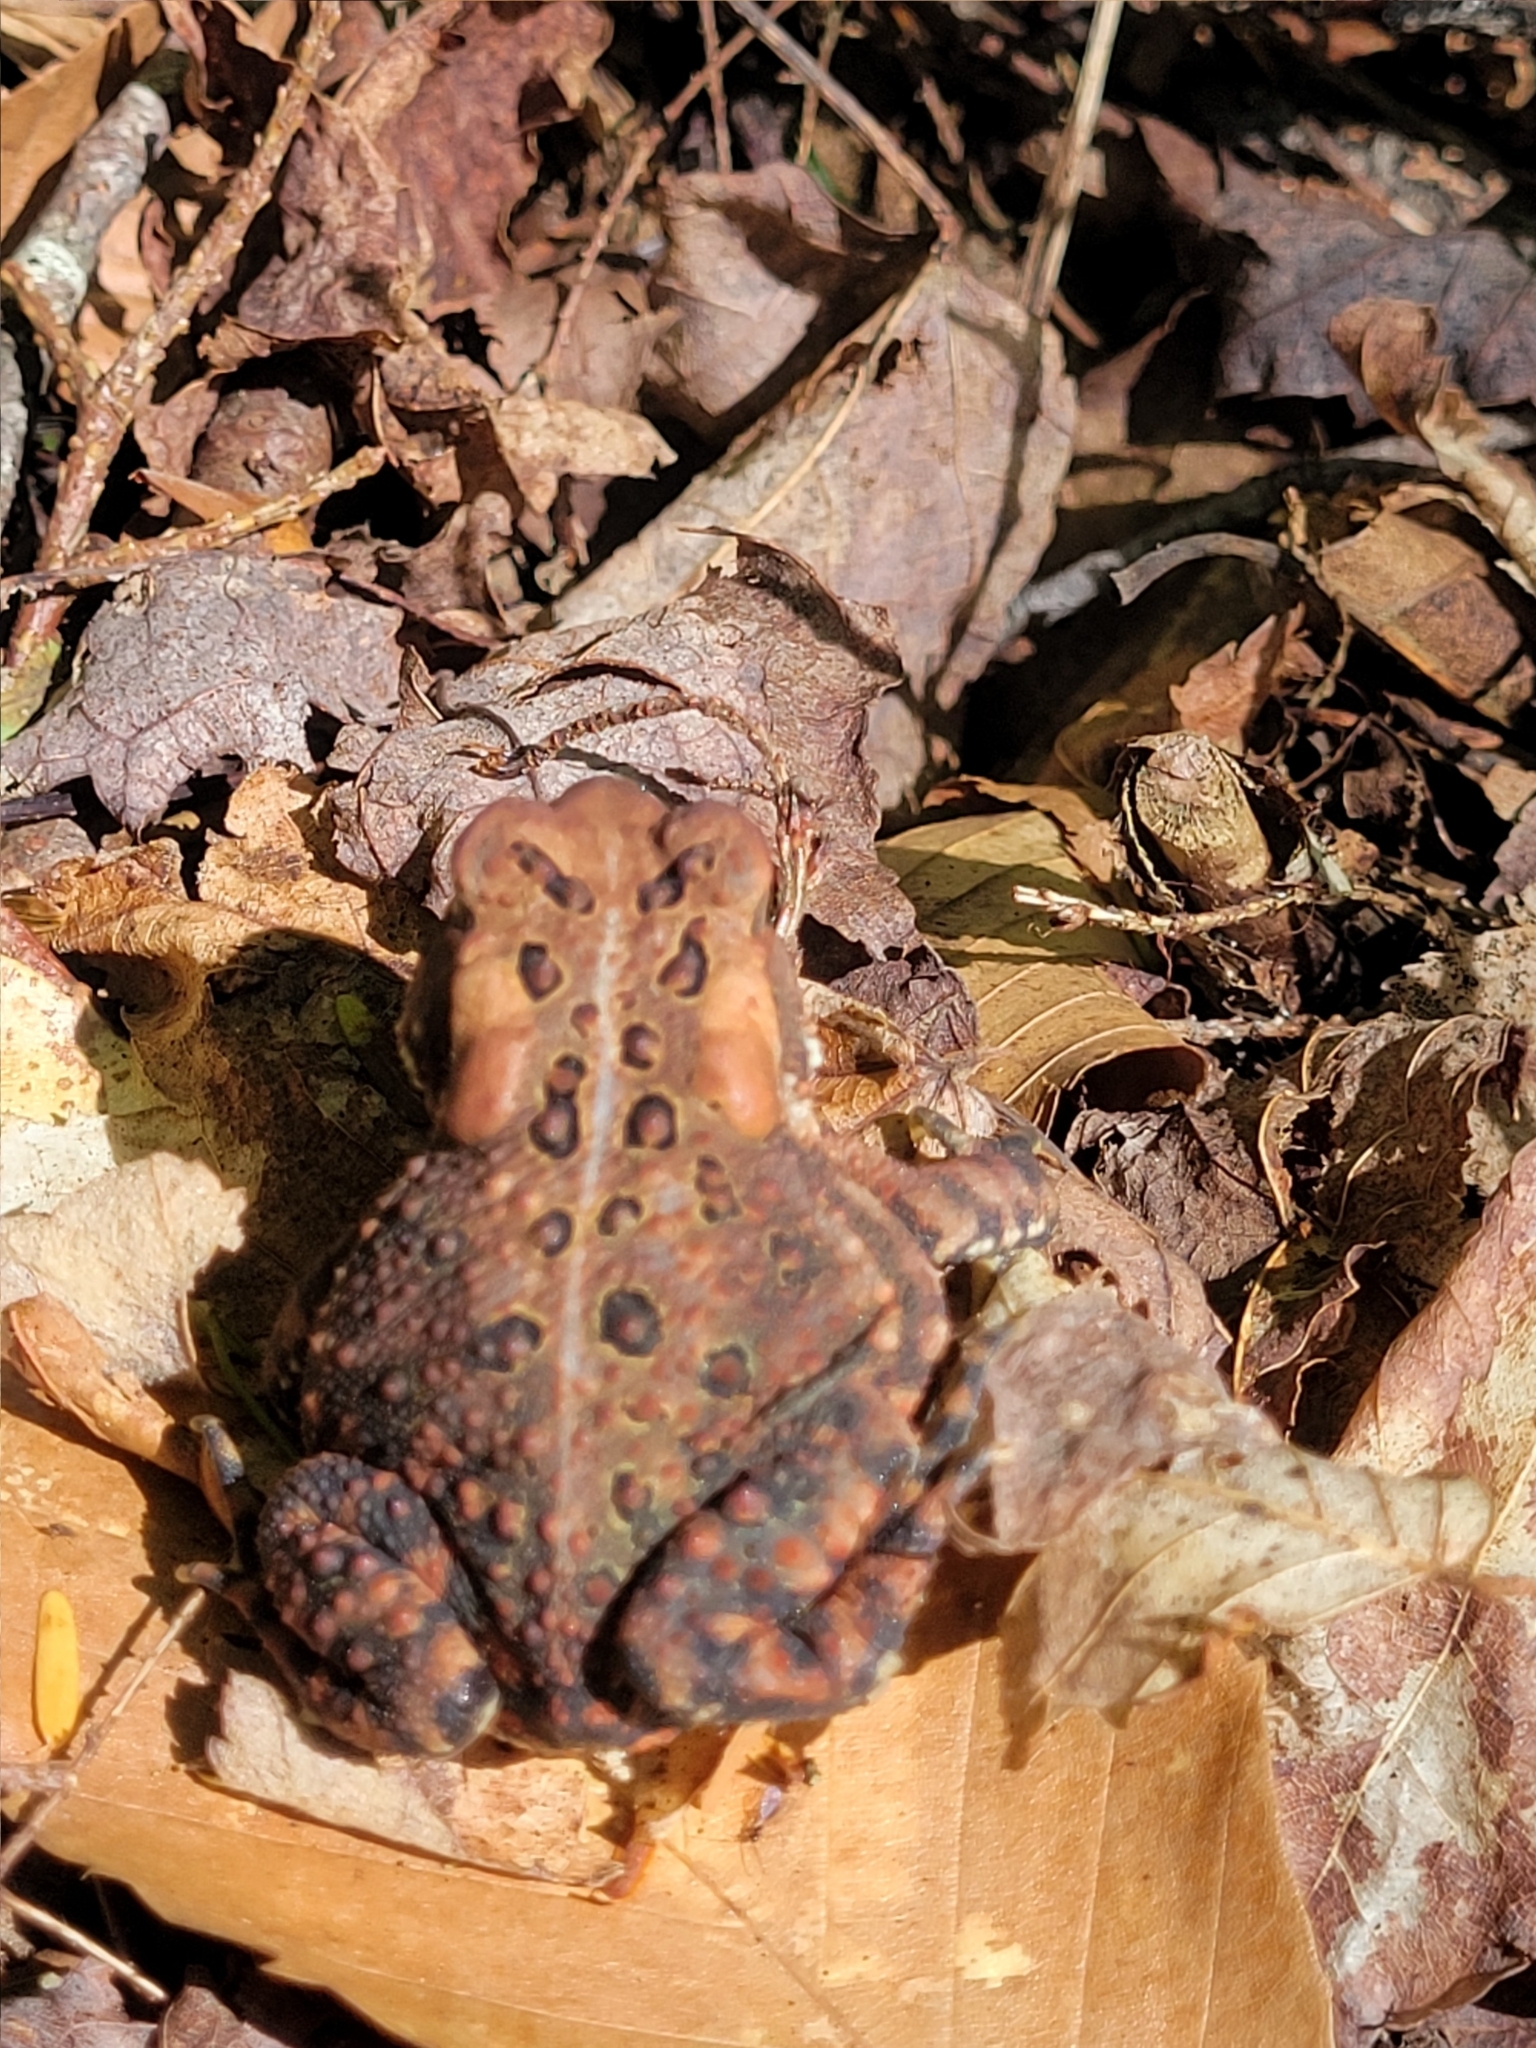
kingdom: Animalia
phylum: Chordata
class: Amphibia
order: Anura
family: Bufonidae
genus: Anaxyrus
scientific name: Anaxyrus americanus
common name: American toad
